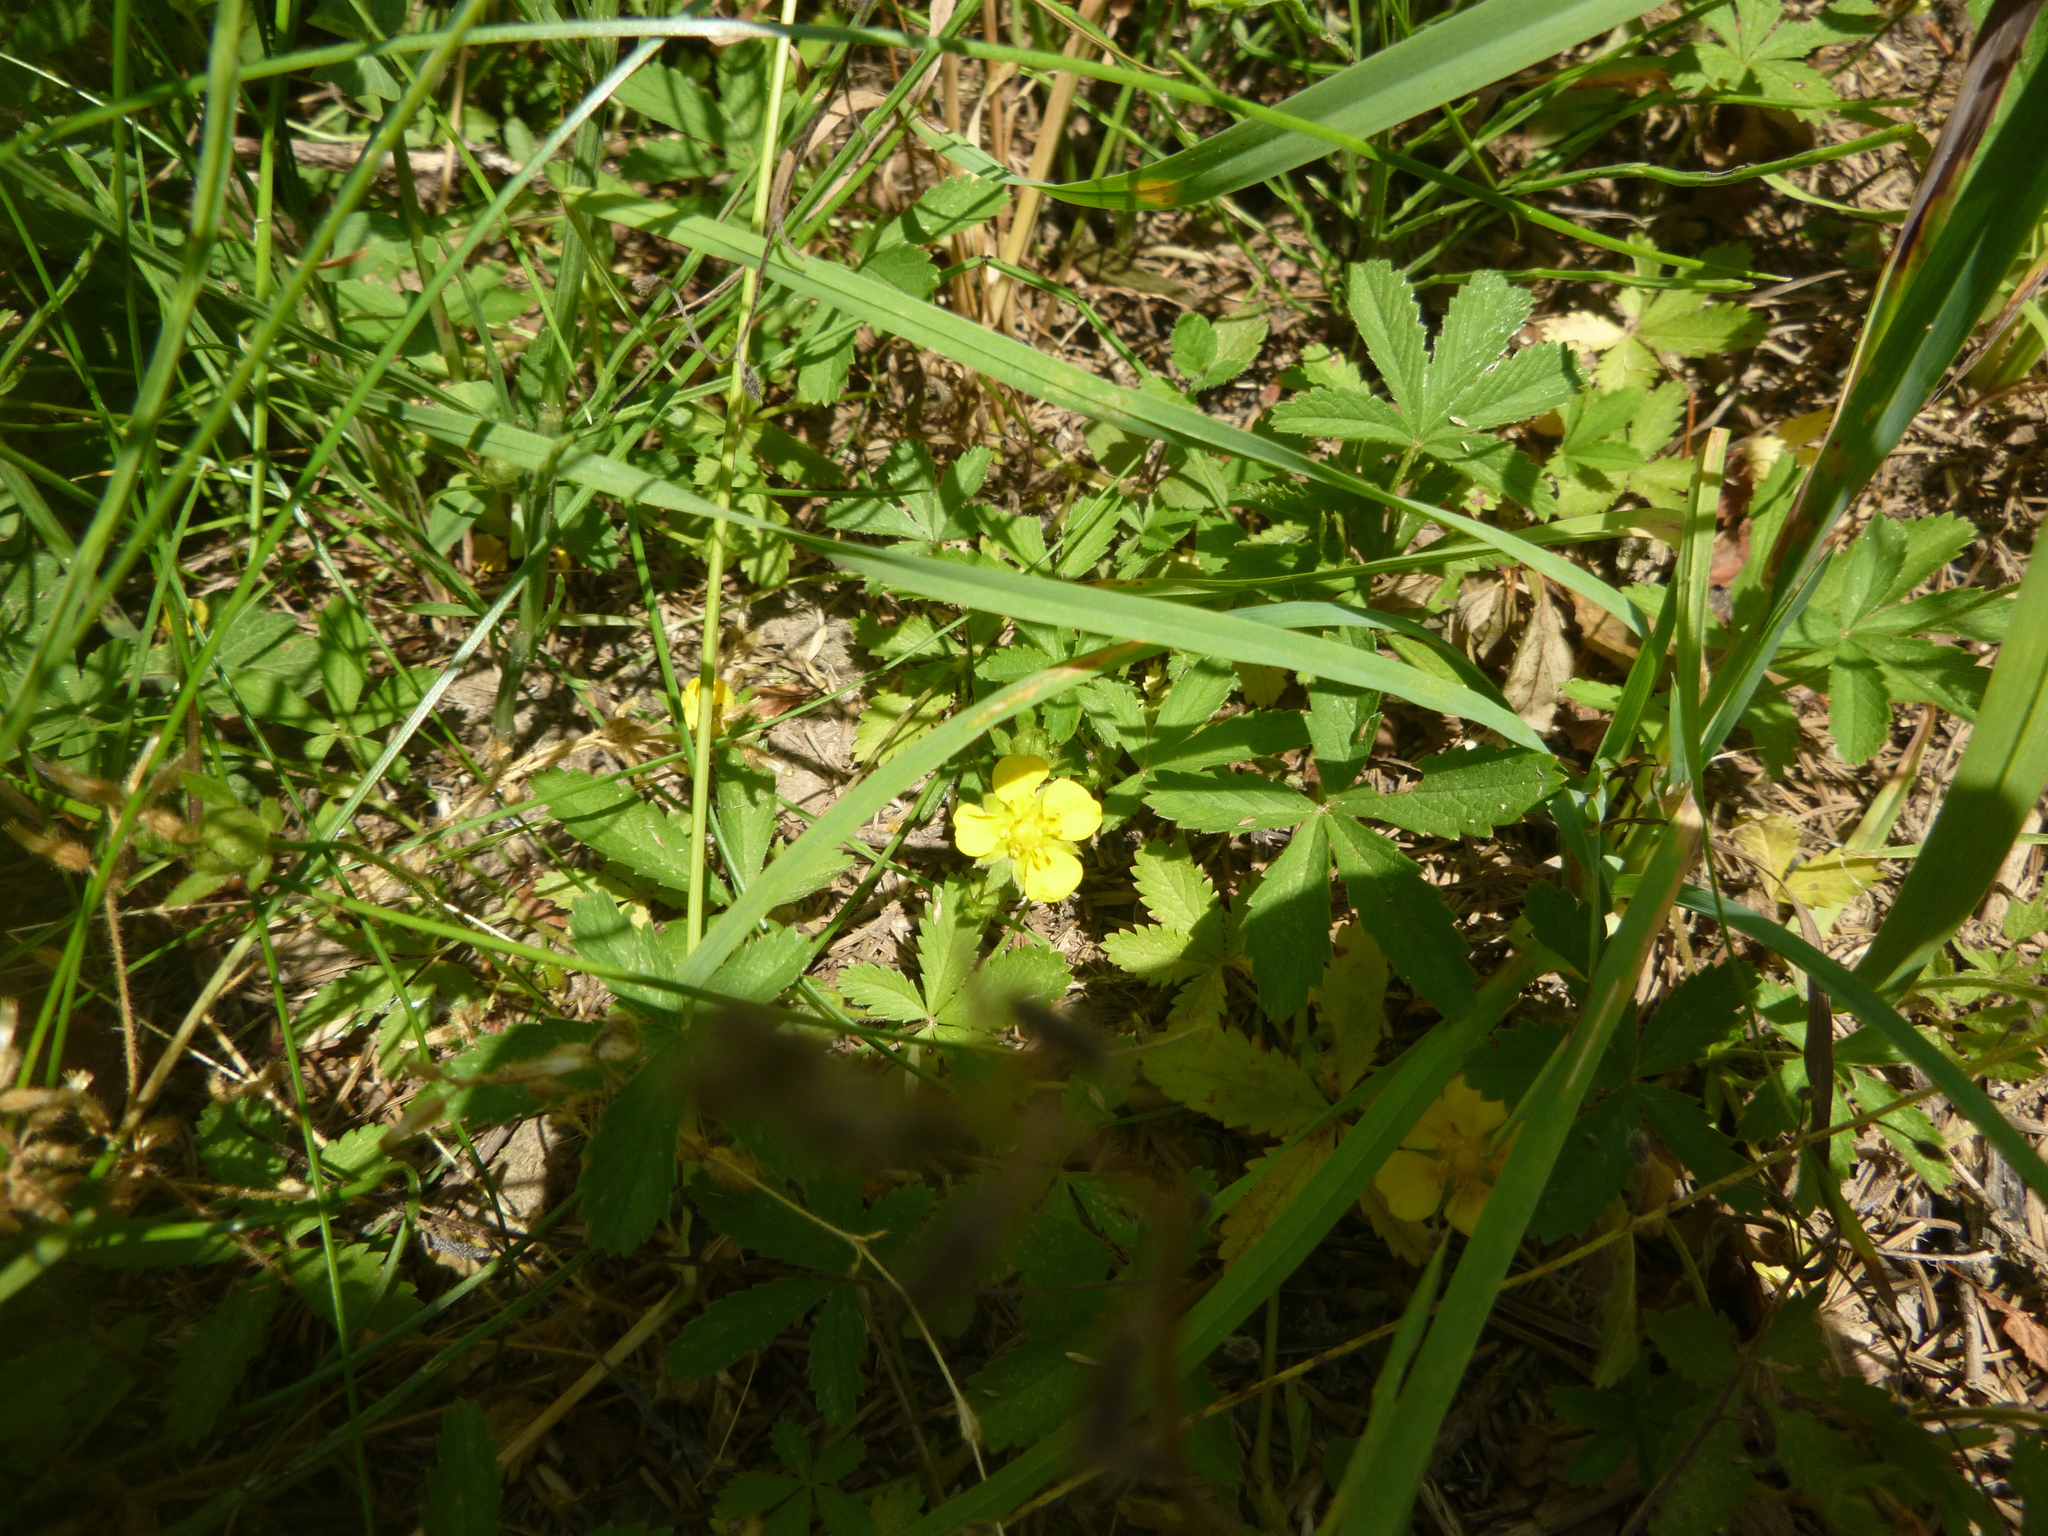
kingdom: Plantae
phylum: Tracheophyta
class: Magnoliopsida
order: Rosales
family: Rosaceae
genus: Potentilla
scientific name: Potentilla reptans
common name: Creeping cinquefoil
